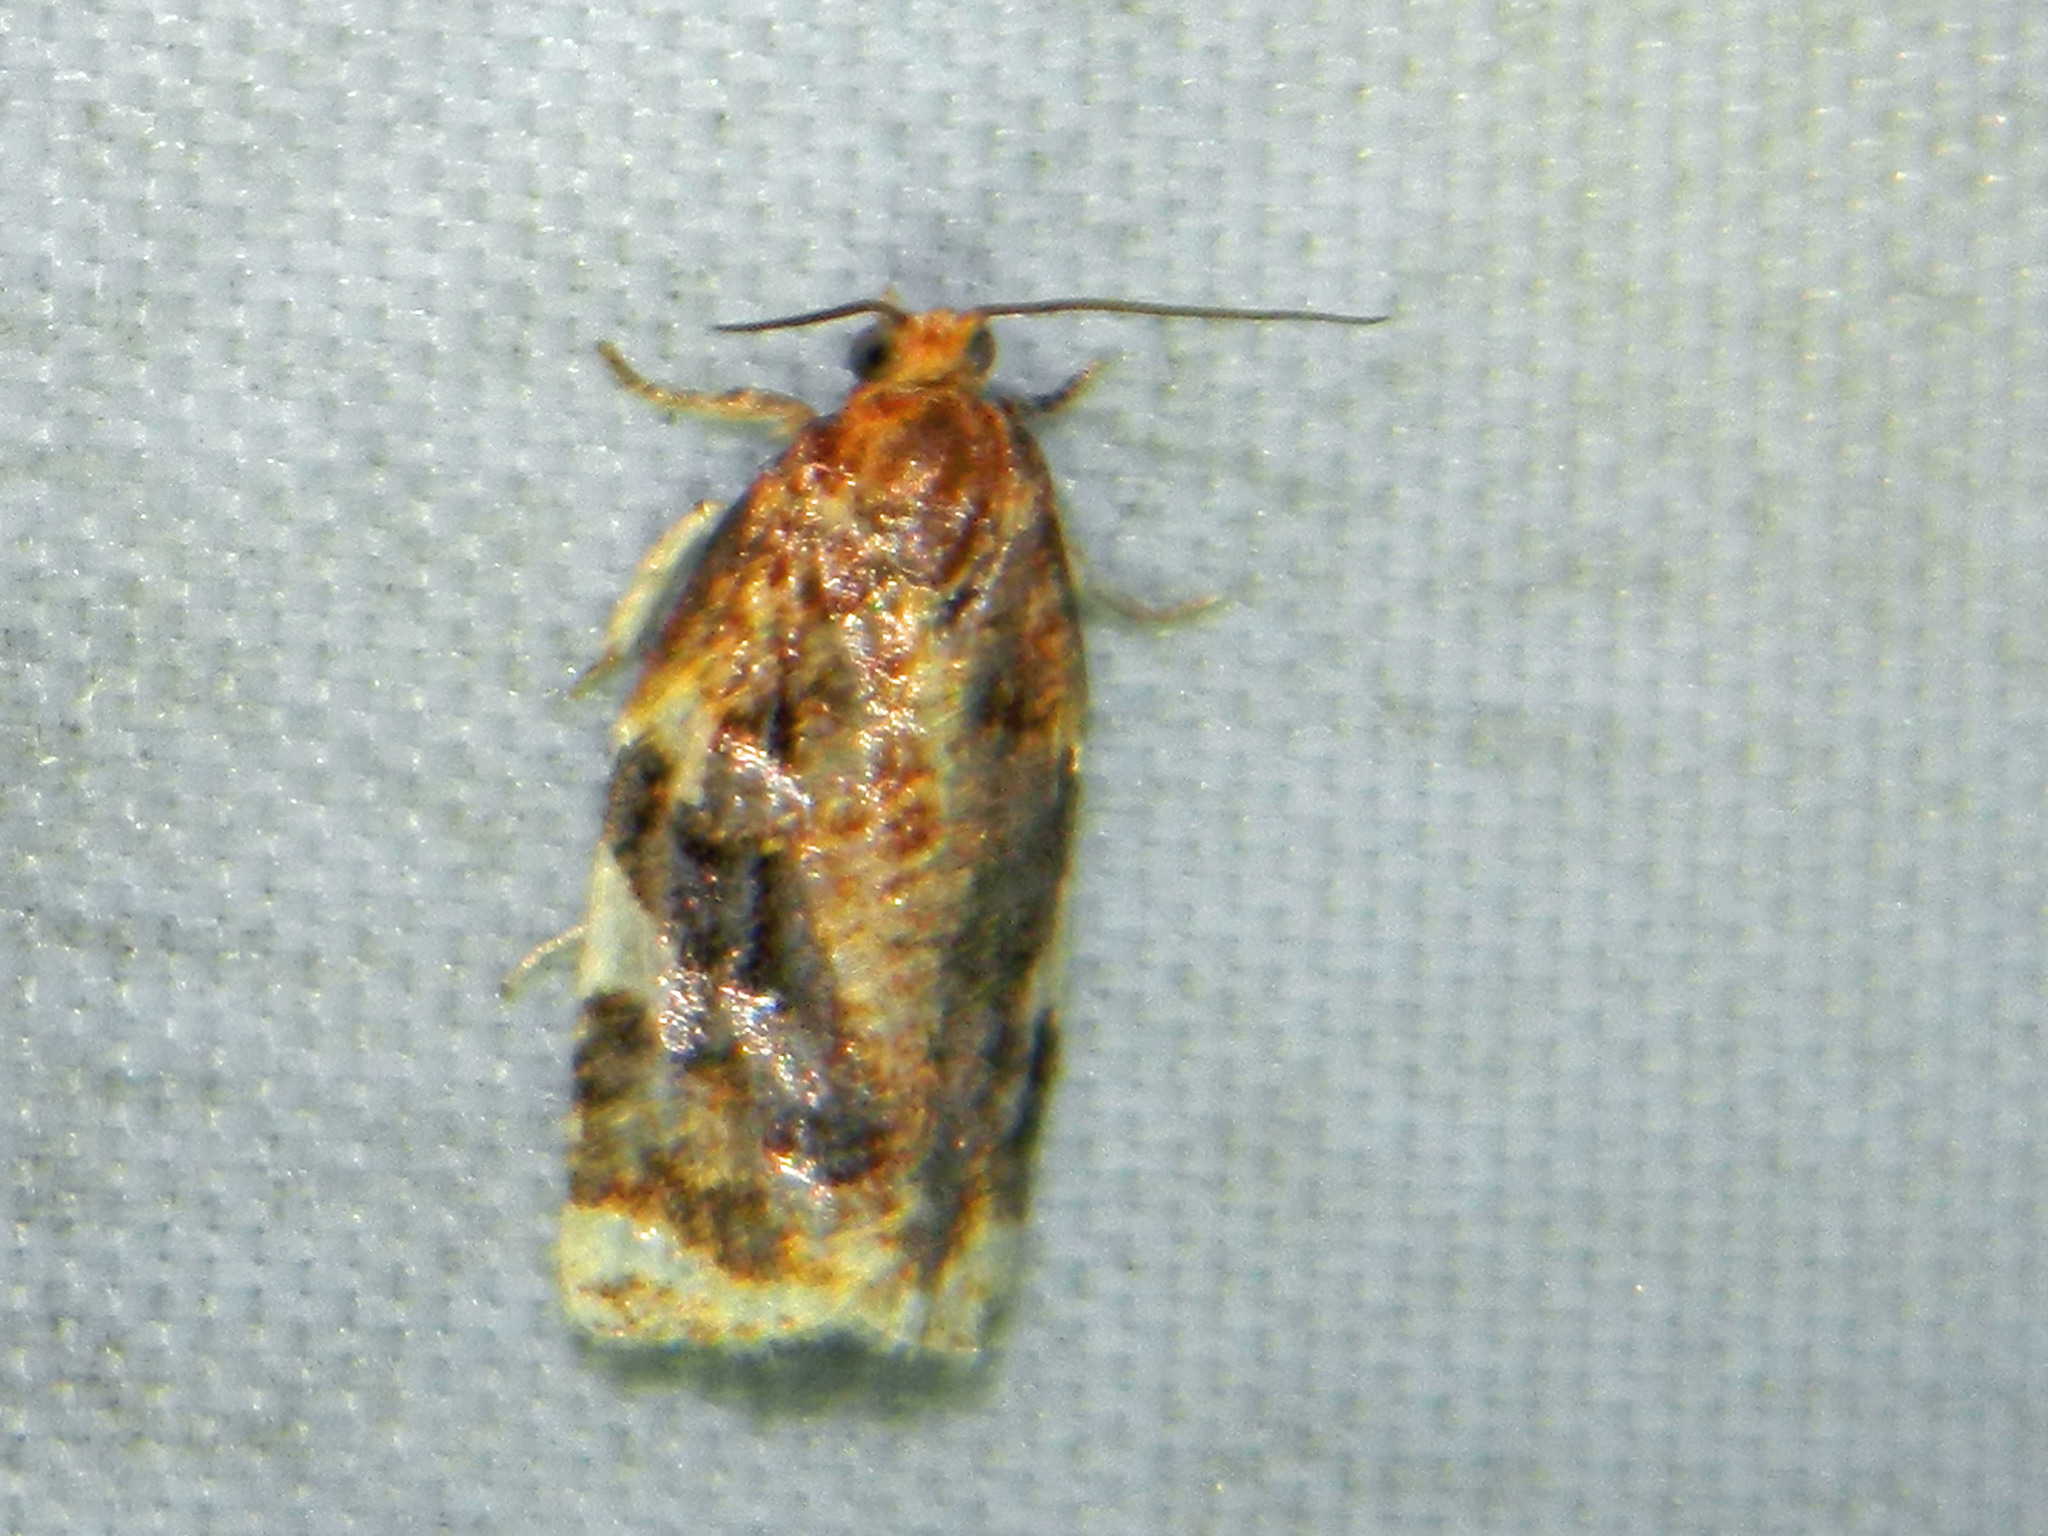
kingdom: Animalia
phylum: Arthropoda
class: Insecta
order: Lepidoptera
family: Tortricidae
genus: Archips
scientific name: Archips argyrospila
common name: Fruit-tree leafroller moth
